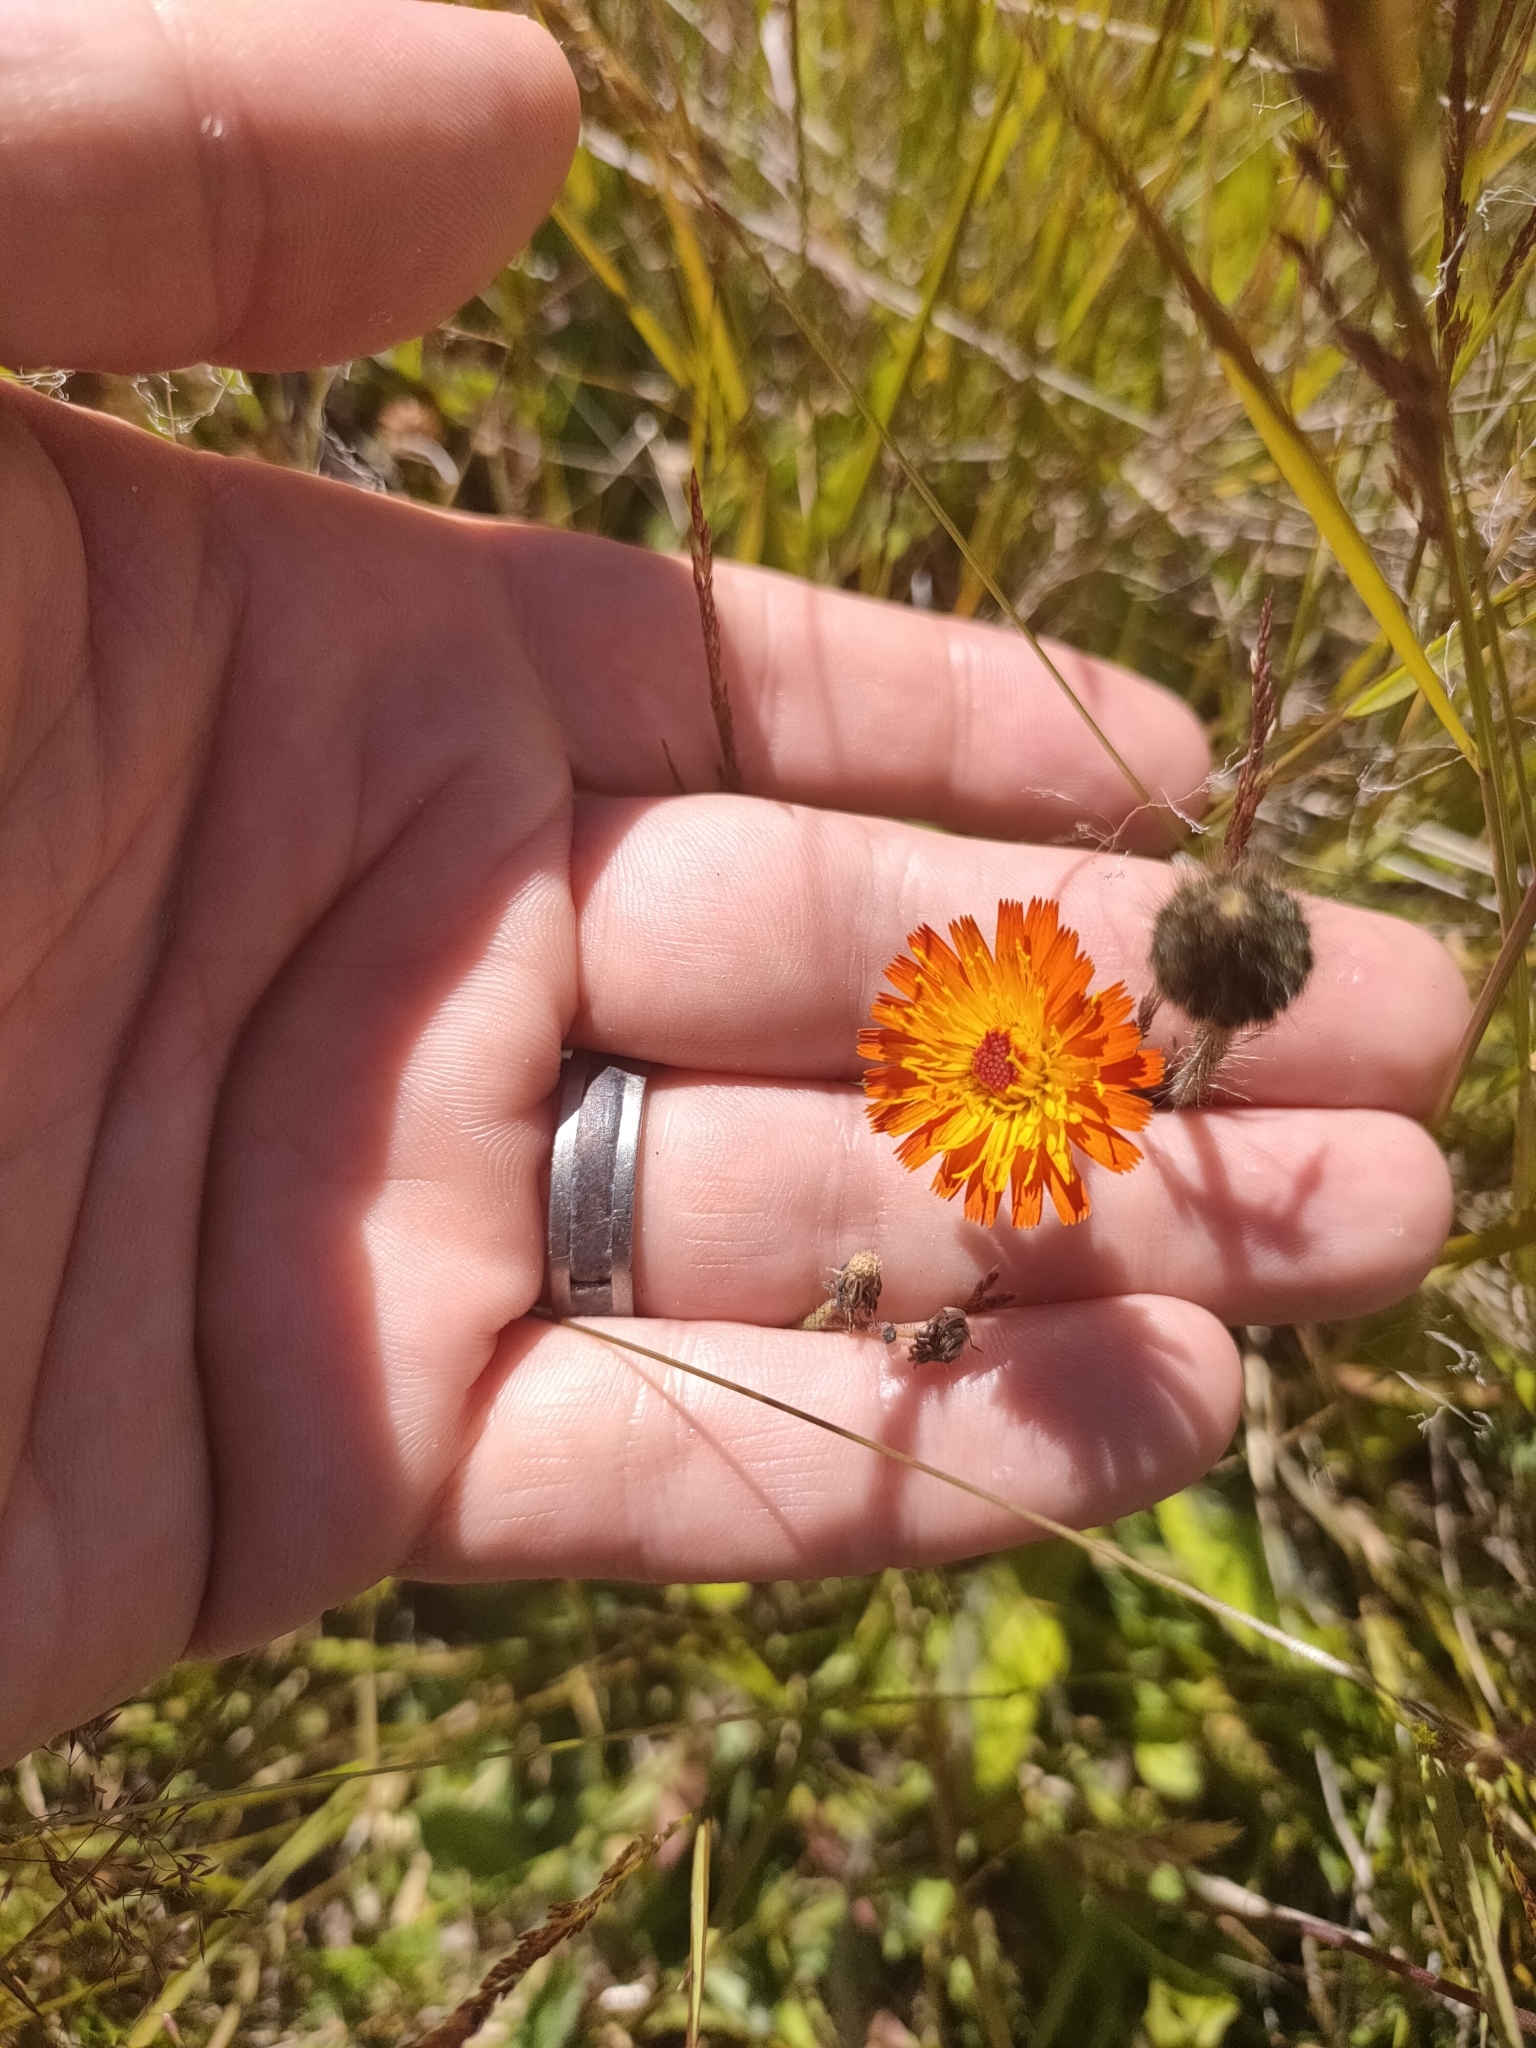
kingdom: Plantae
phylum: Tracheophyta
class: Magnoliopsida
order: Asterales
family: Asteraceae
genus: Pilosella
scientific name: Pilosella aurantiaca
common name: Fox-and-cubs
